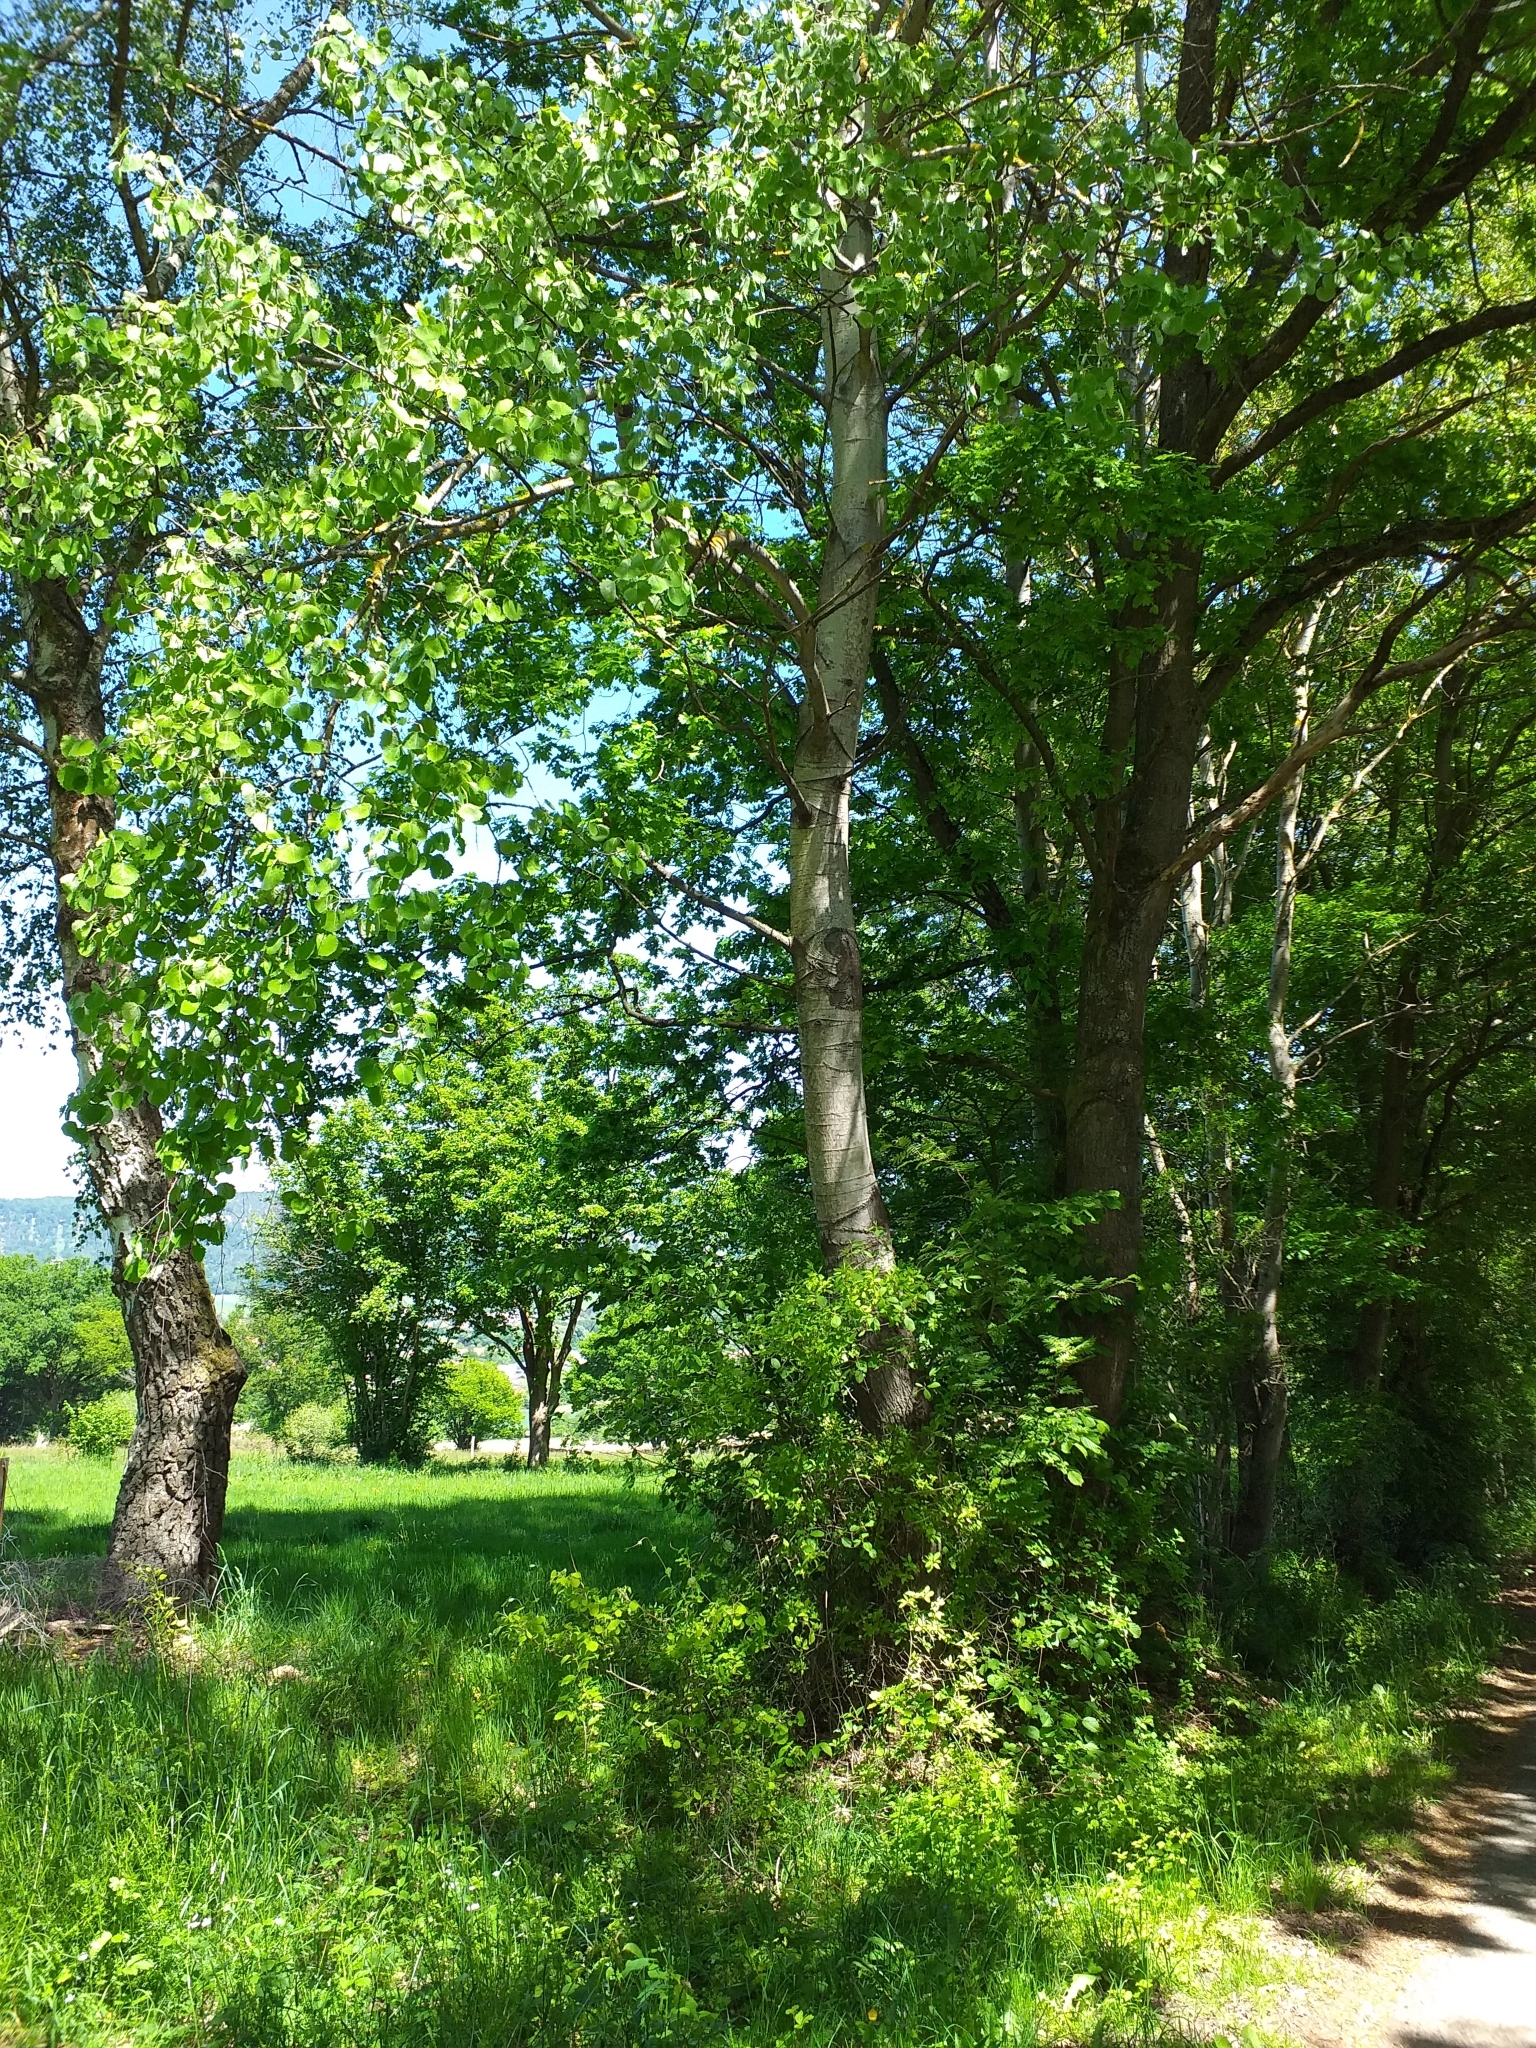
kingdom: Plantae
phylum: Tracheophyta
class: Magnoliopsida
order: Malpighiales
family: Salicaceae
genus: Populus
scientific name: Populus tremula
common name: European aspen
